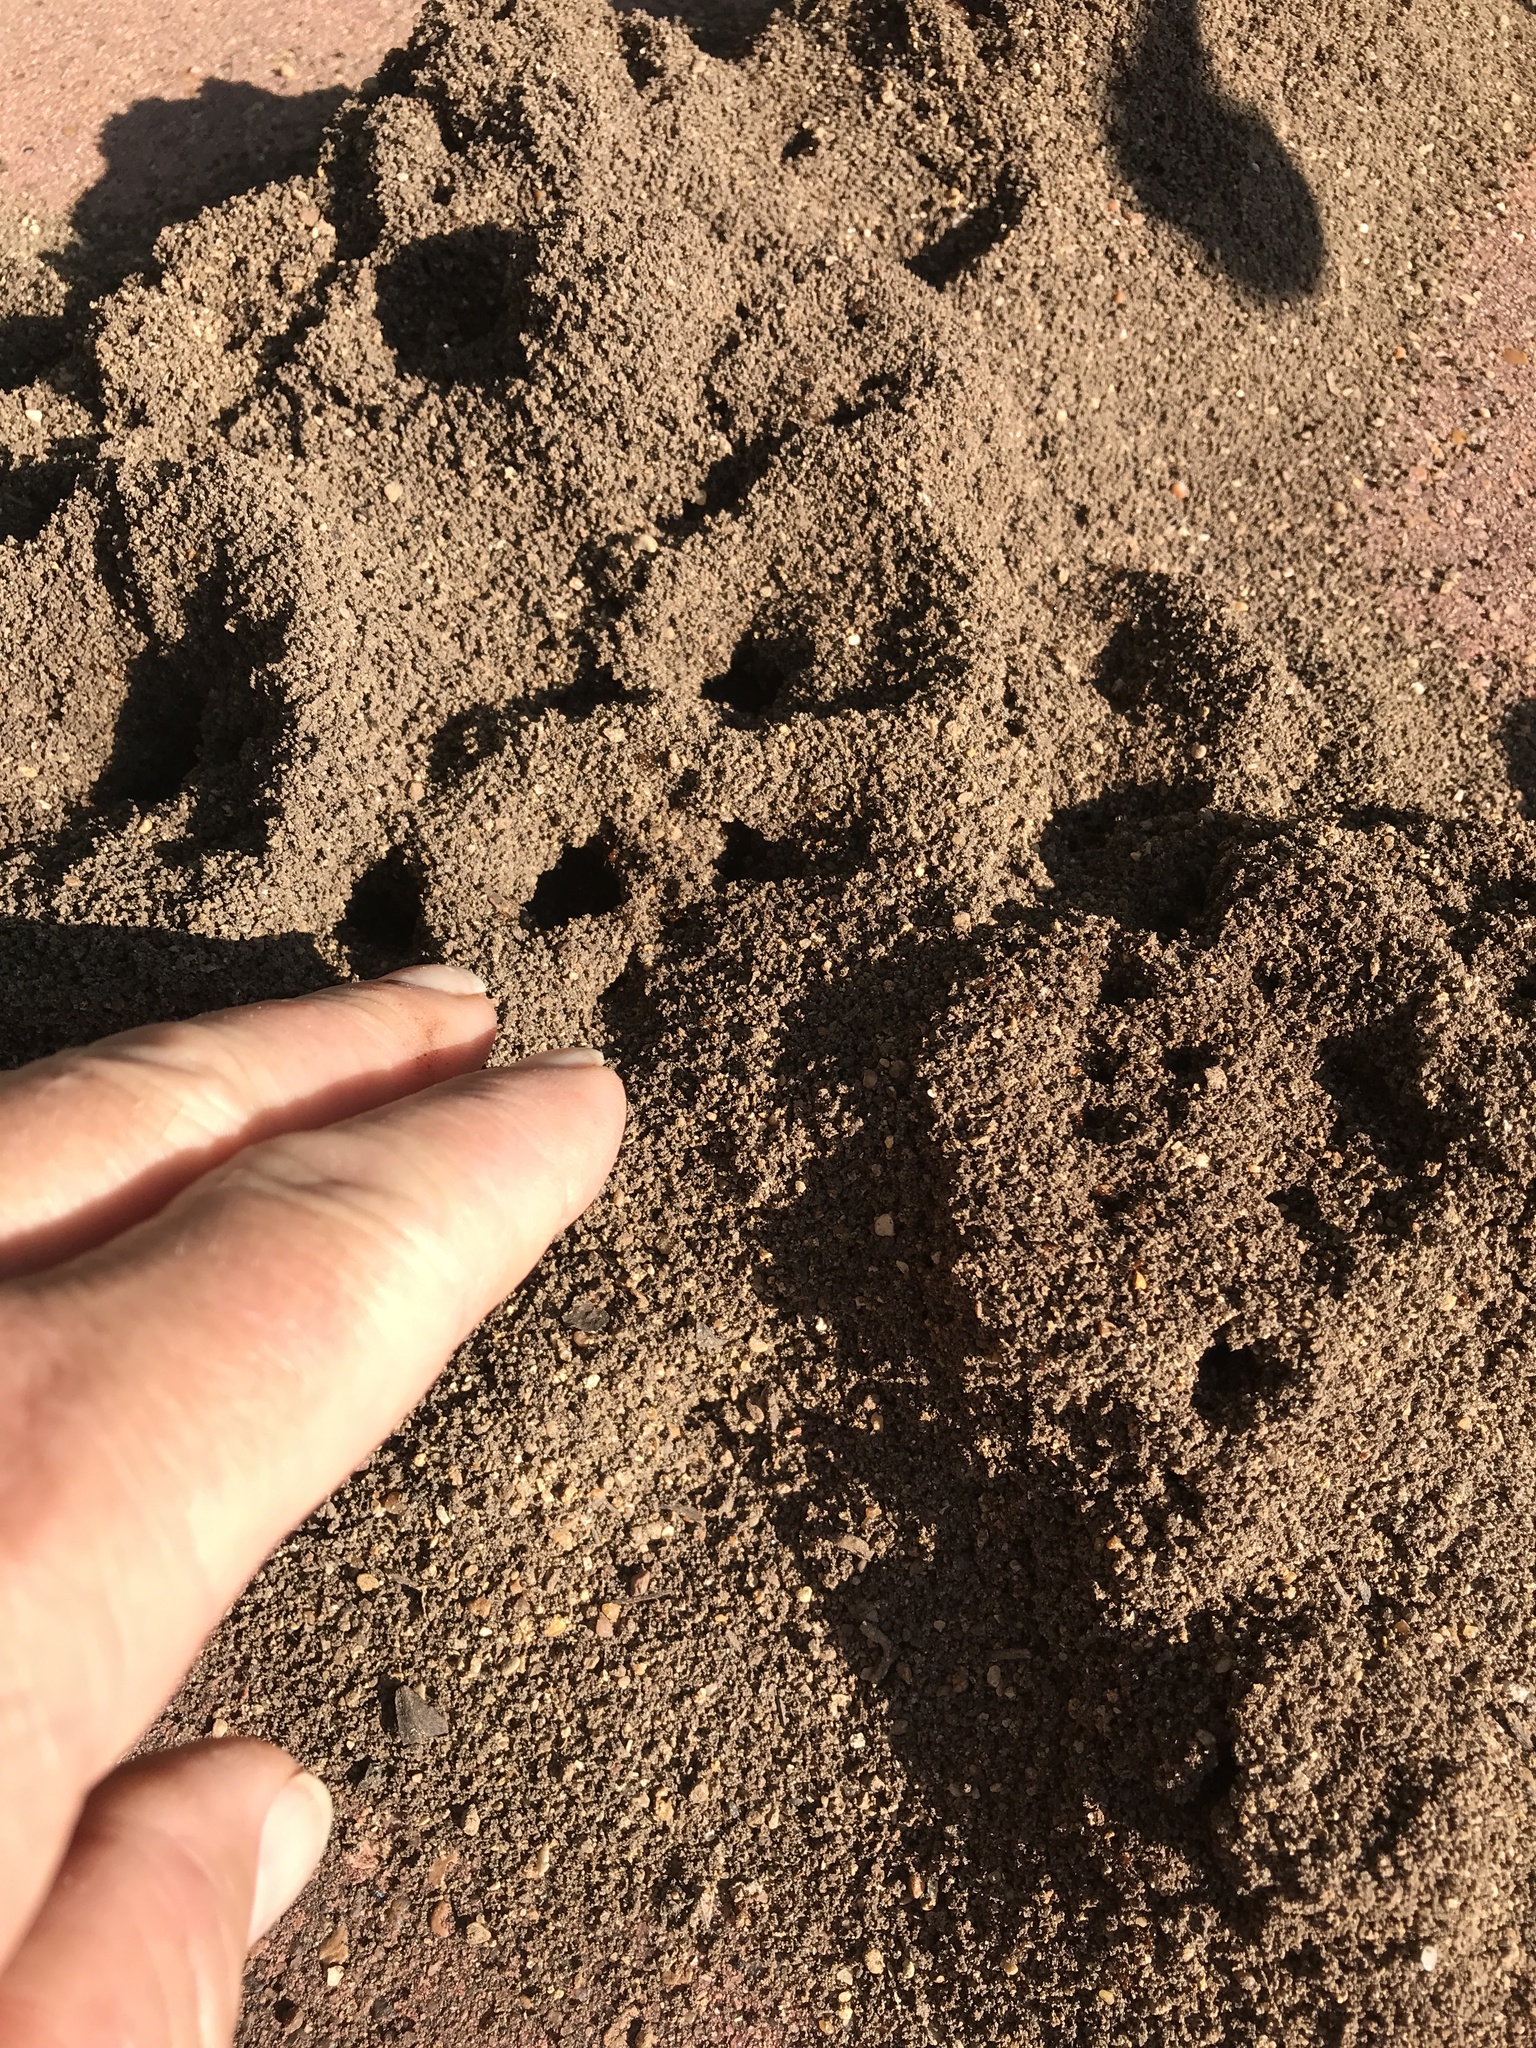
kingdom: Animalia
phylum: Arthropoda
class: Insecta
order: Hymenoptera
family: Formicidae
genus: Solenopsis
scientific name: Solenopsis invicta
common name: Red imported fire ant
